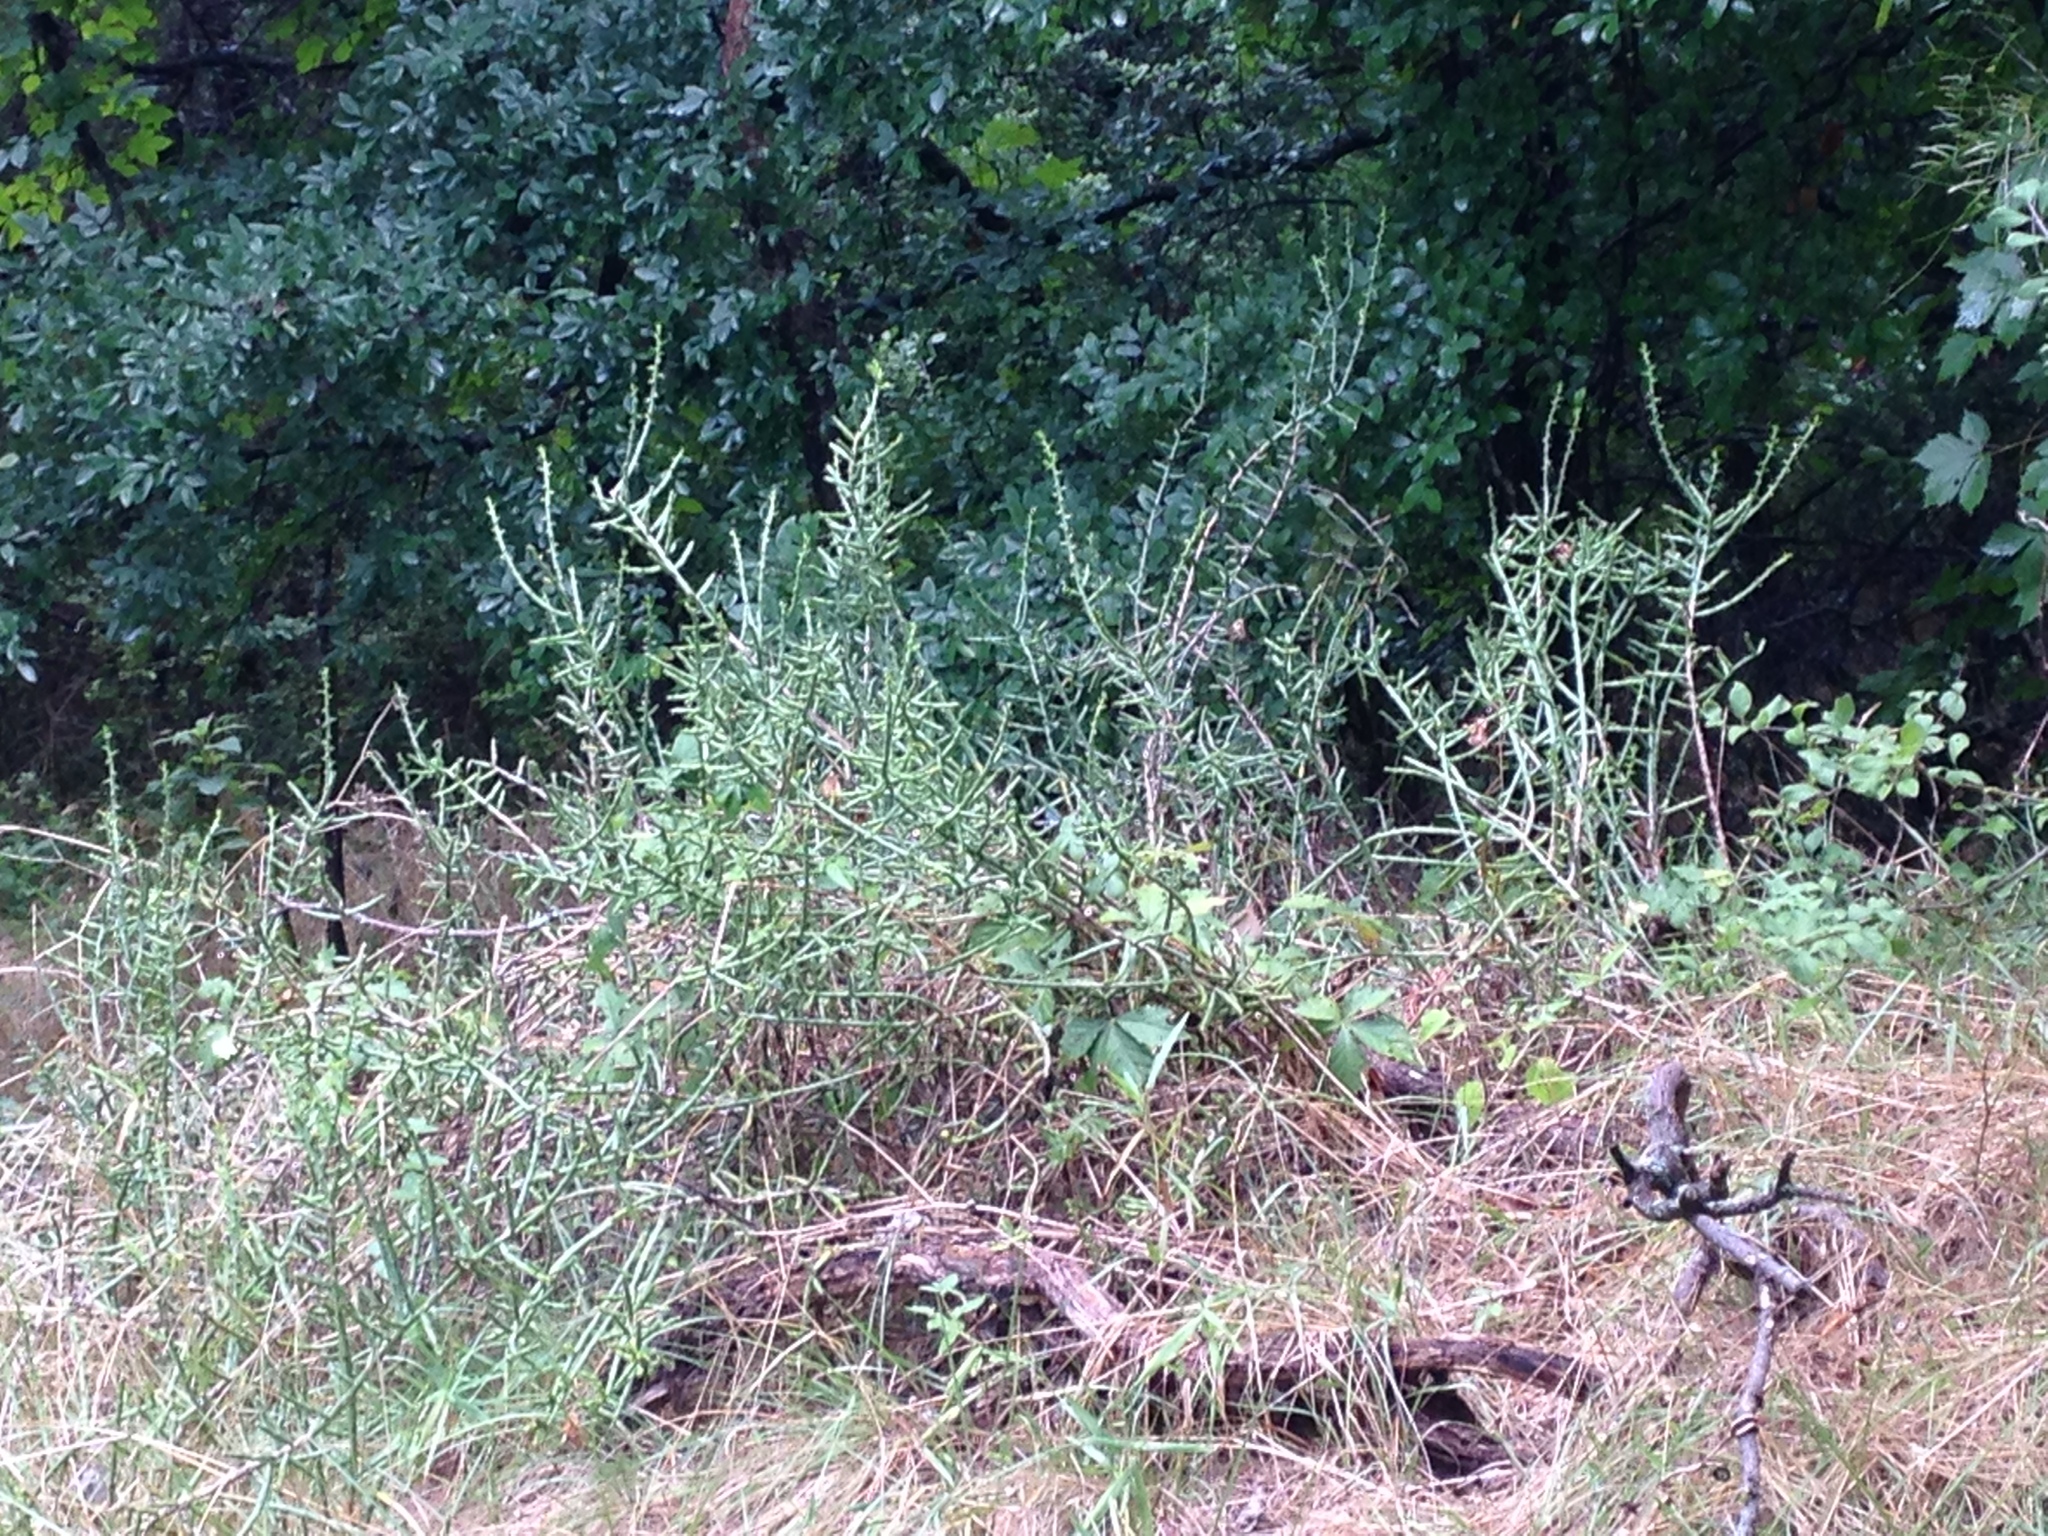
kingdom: Plantae
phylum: Tracheophyta
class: Magnoliopsida
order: Caryophyllales
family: Cactaceae
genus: Cylindropuntia
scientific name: Cylindropuntia leptocaulis
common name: Christmas cactus
